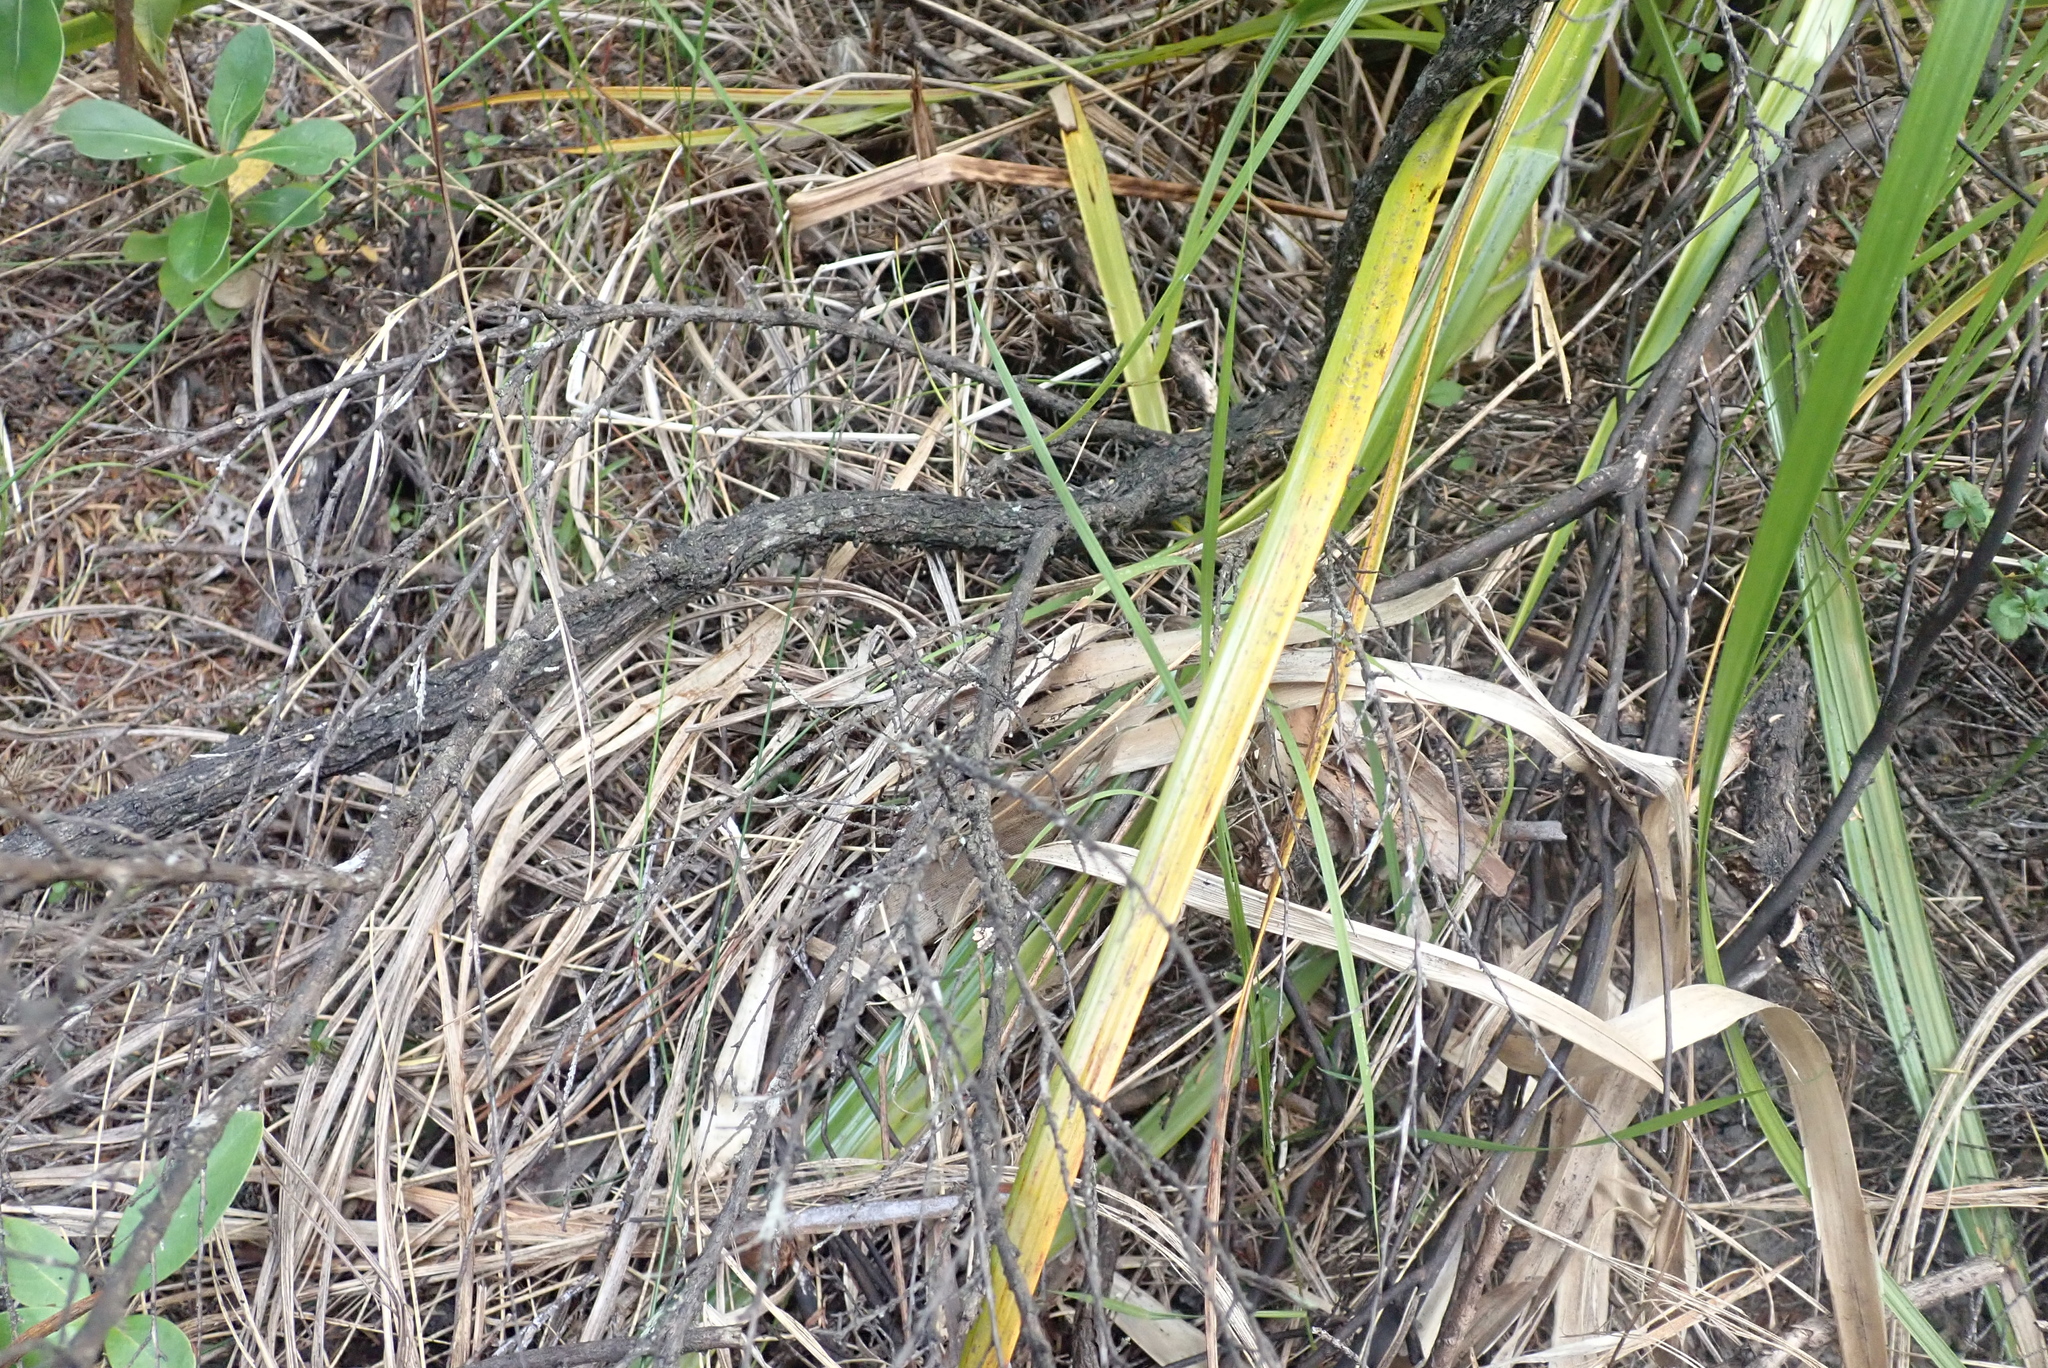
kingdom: Plantae
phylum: Tracheophyta
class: Magnoliopsida
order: Gentianales
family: Rubiaceae
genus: Coprosma
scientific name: Coprosma lucida
